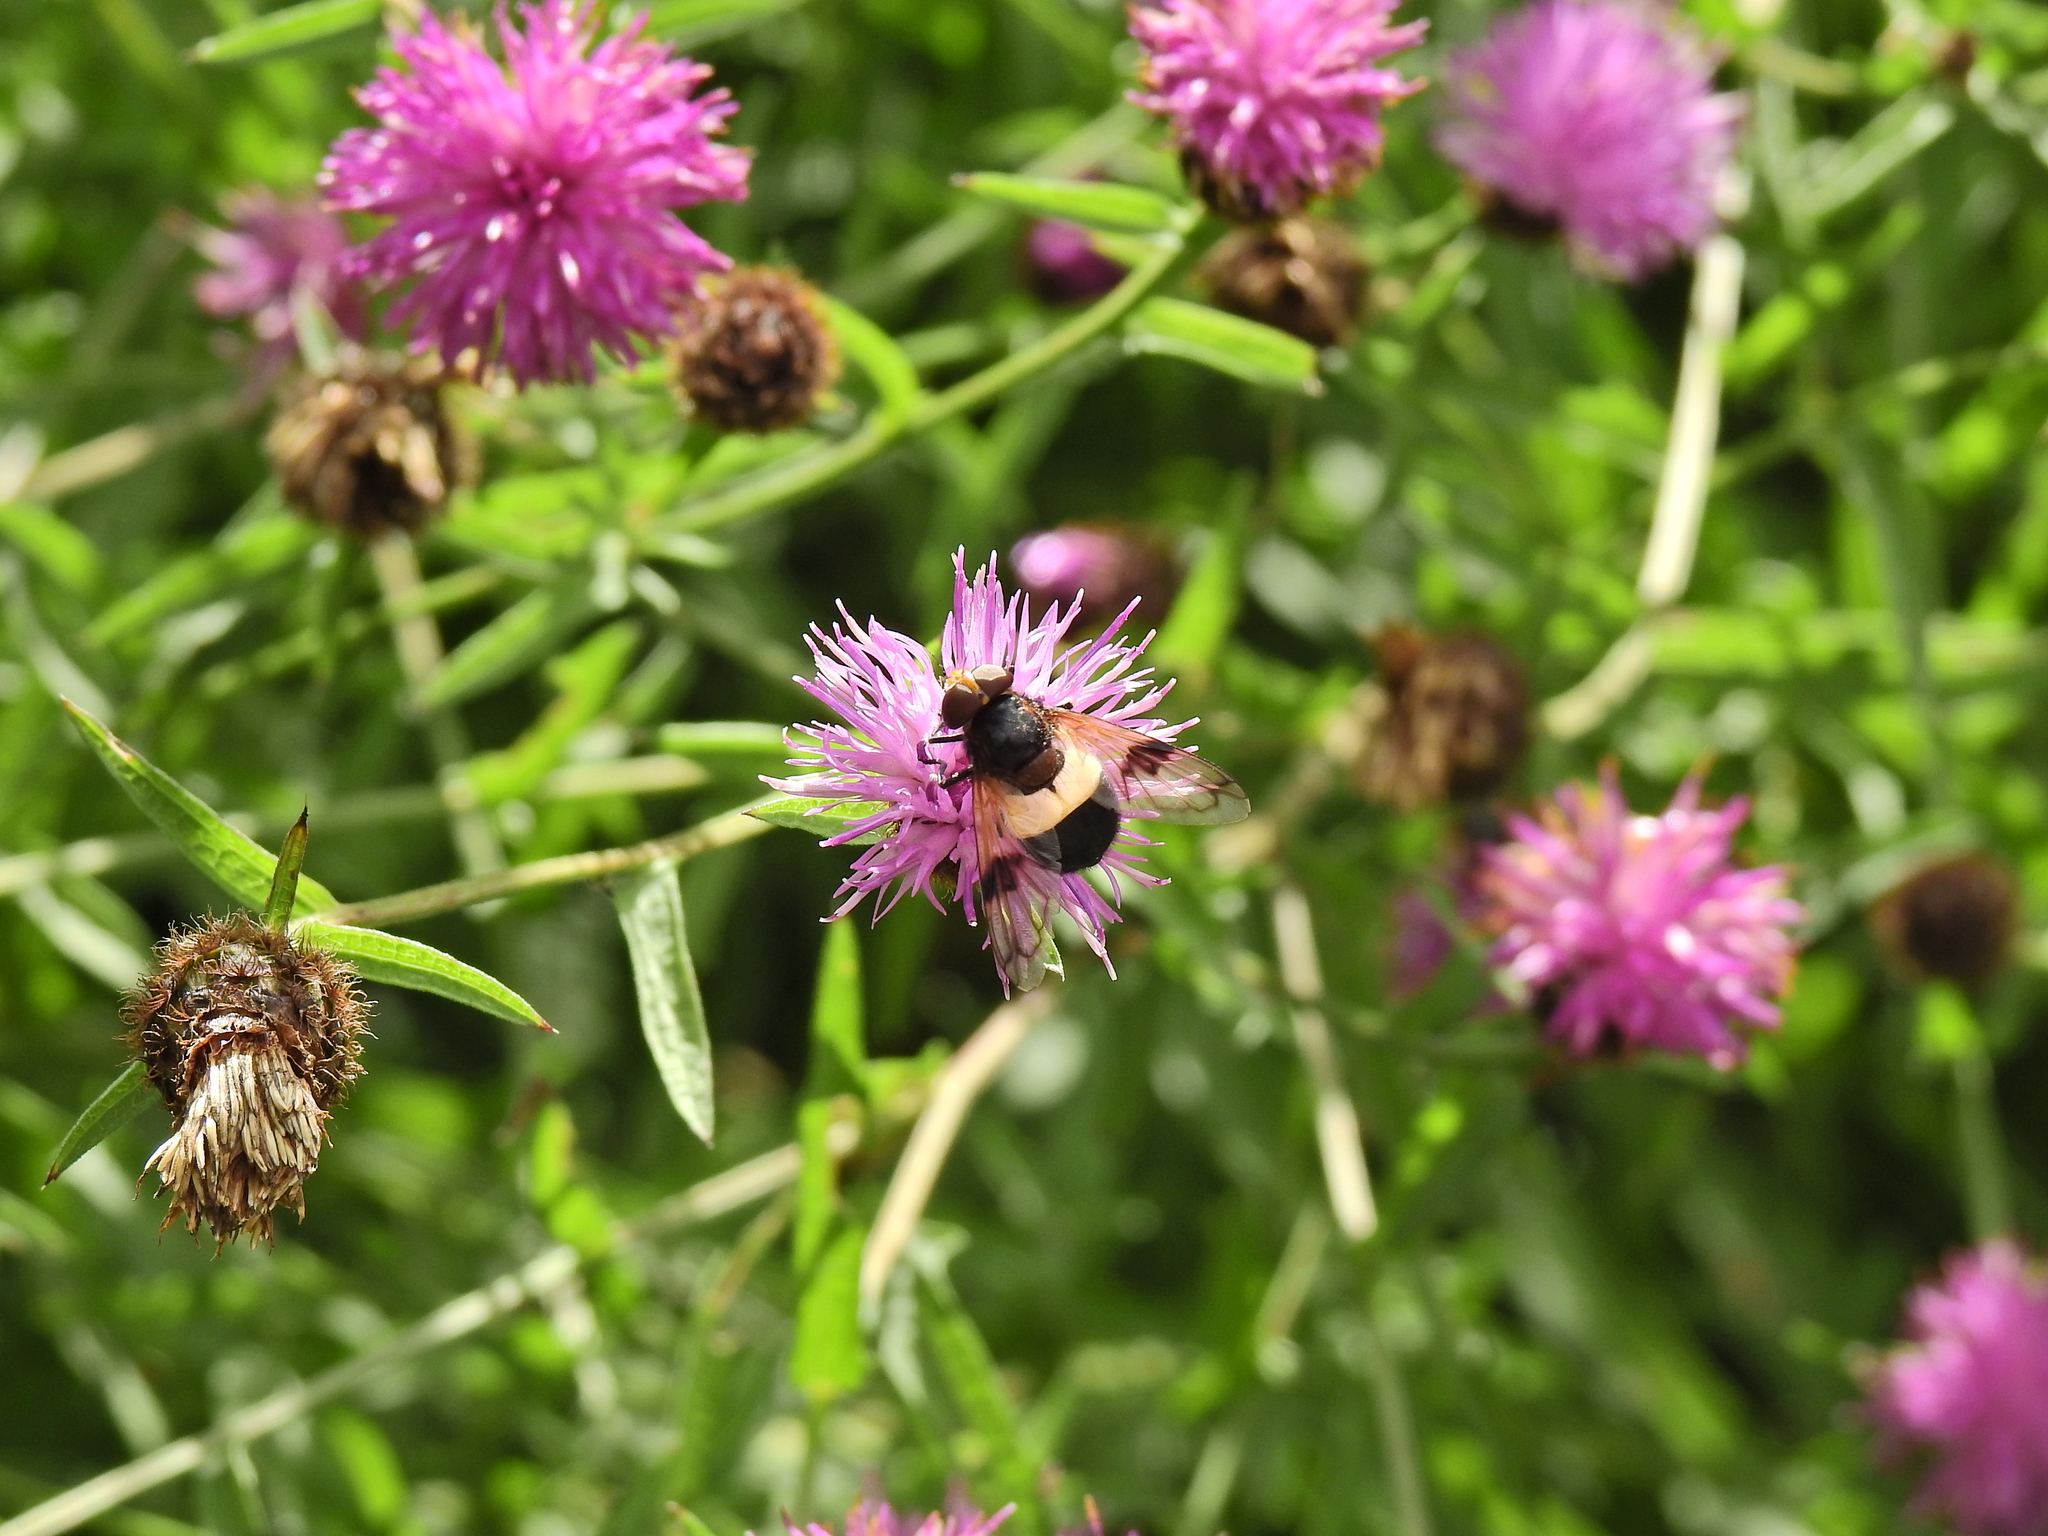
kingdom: Animalia
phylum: Arthropoda
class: Insecta
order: Diptera
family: Syrphidae
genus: Volucella
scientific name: Volucella pellucens
